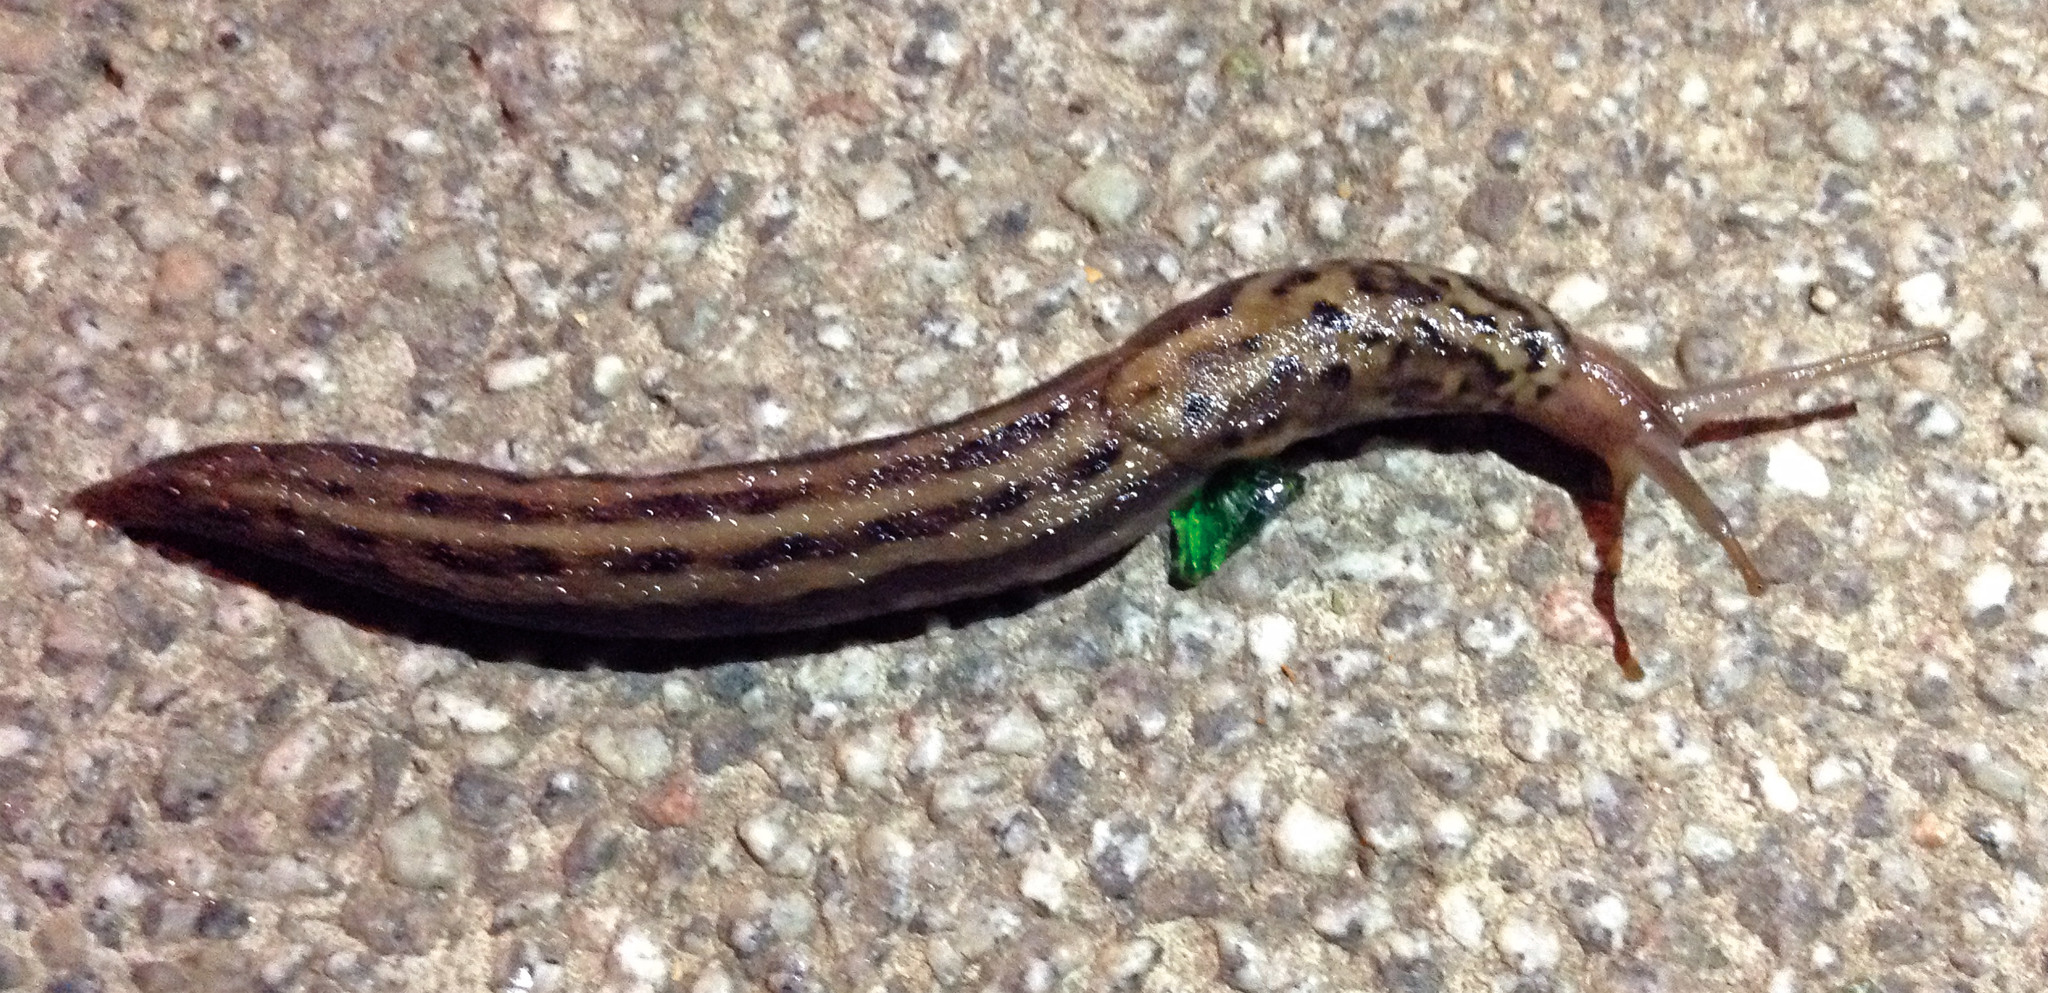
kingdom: Animalia
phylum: Mollusca
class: Gastropoda
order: Stylommatophora
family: Limacidae
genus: Limax
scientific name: Limax maximus
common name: Great grey slug
